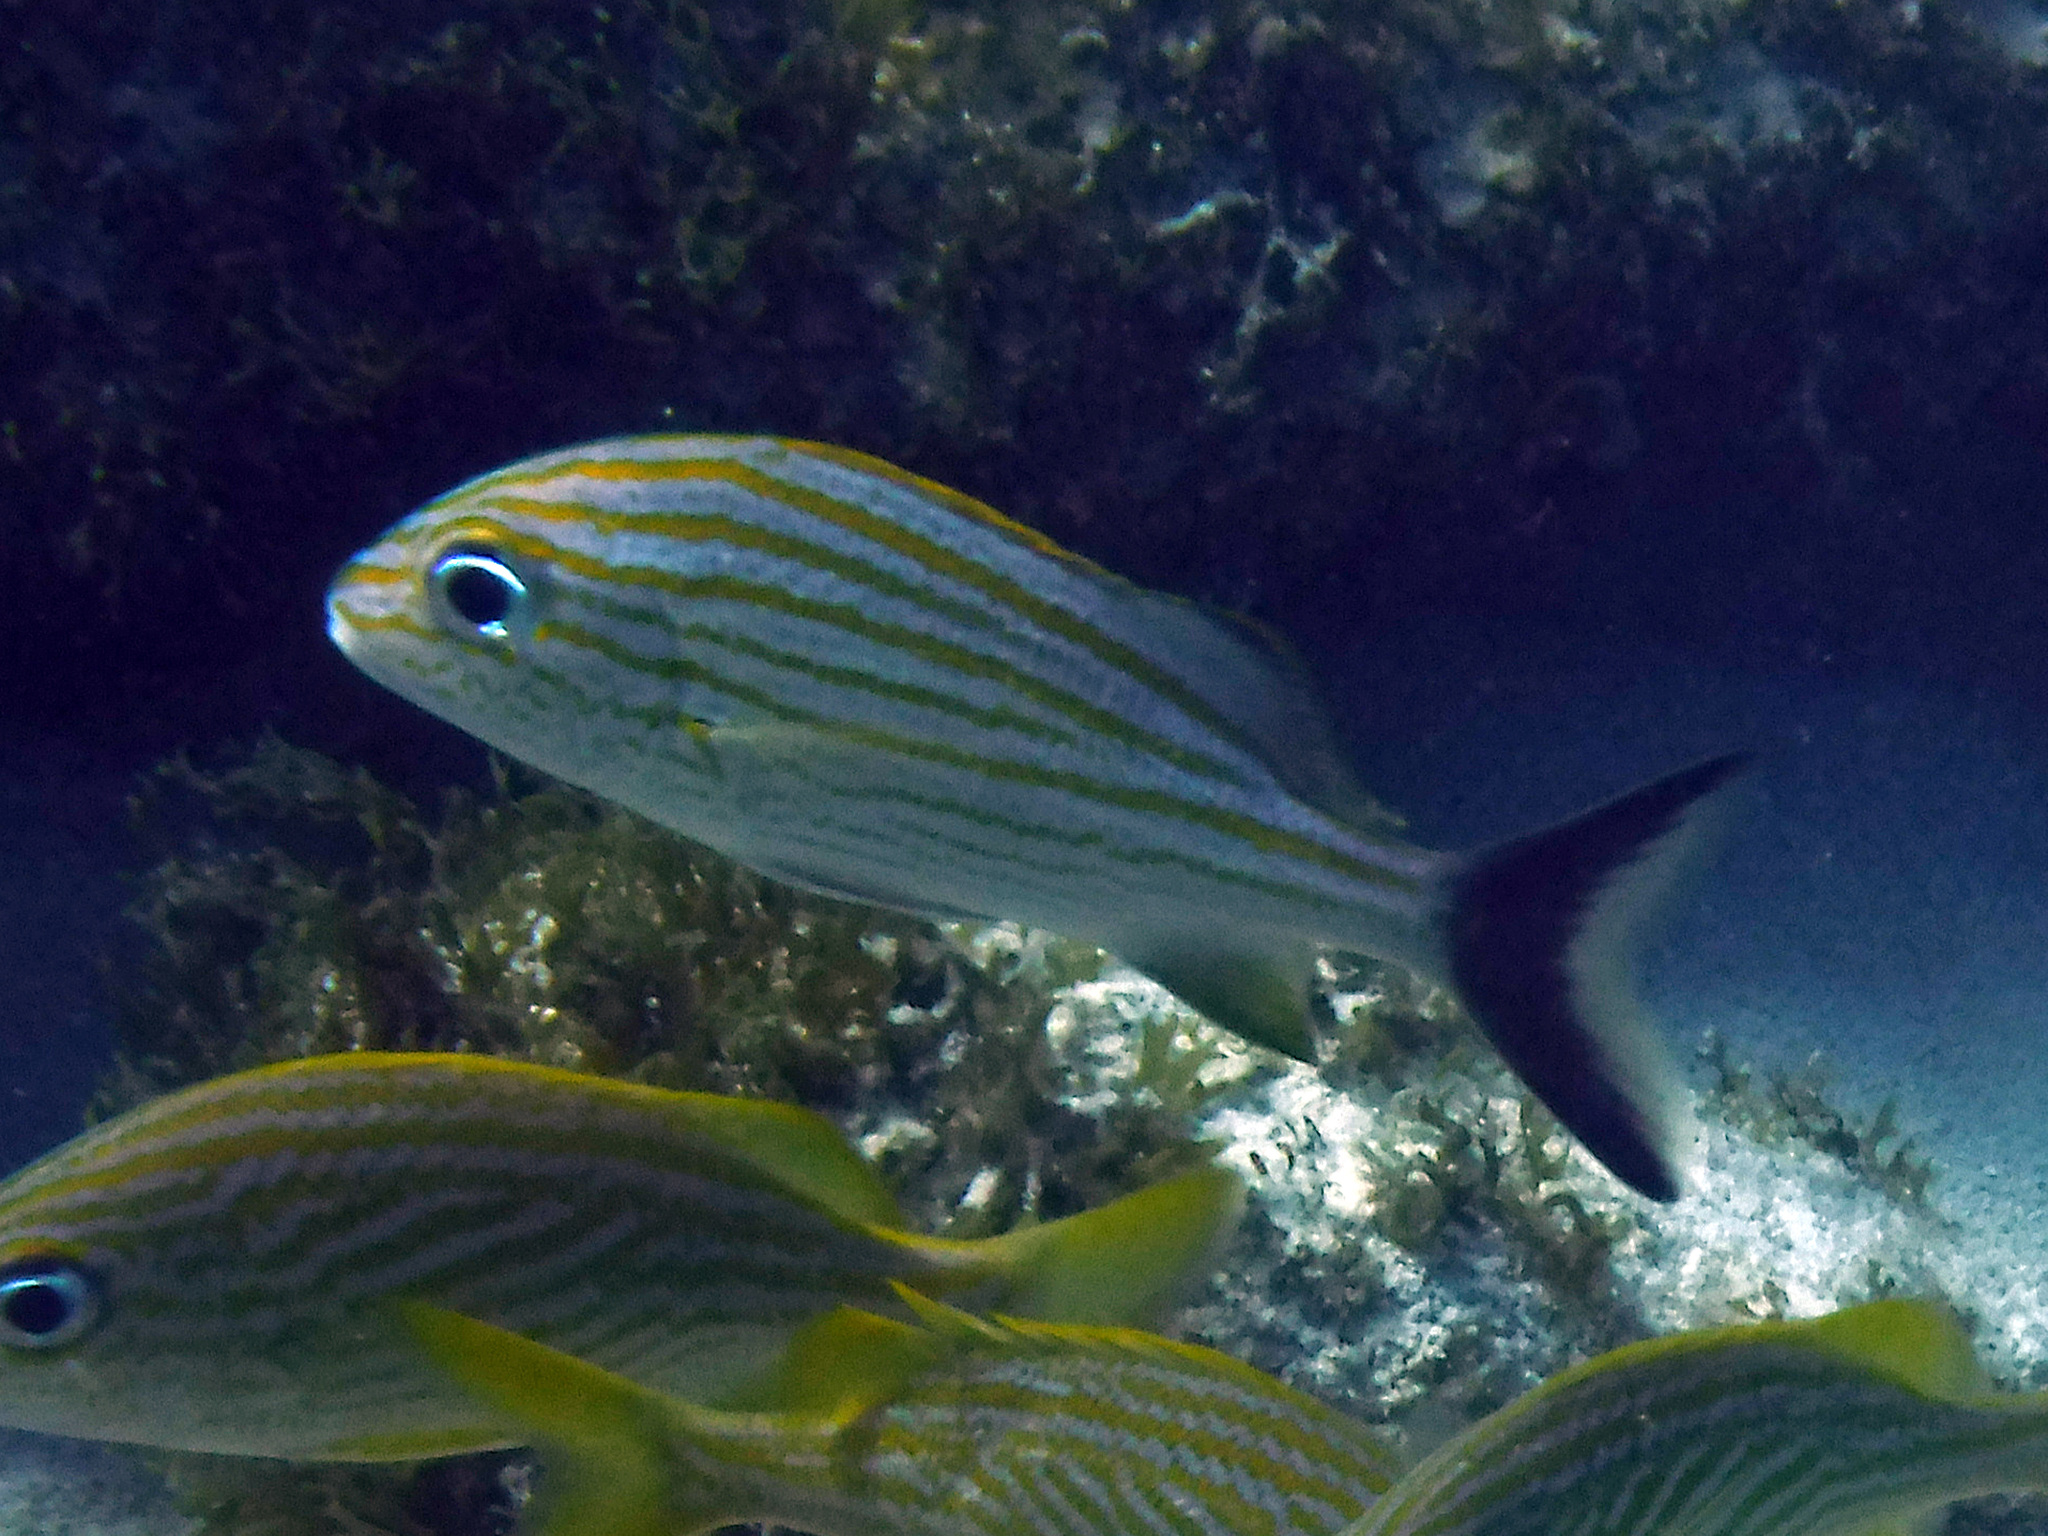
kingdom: Animalia
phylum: Chordata
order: Perciformes
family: Haemulidae
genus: Haemulon
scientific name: Haemulon carbonarium
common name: Caesar grunt
